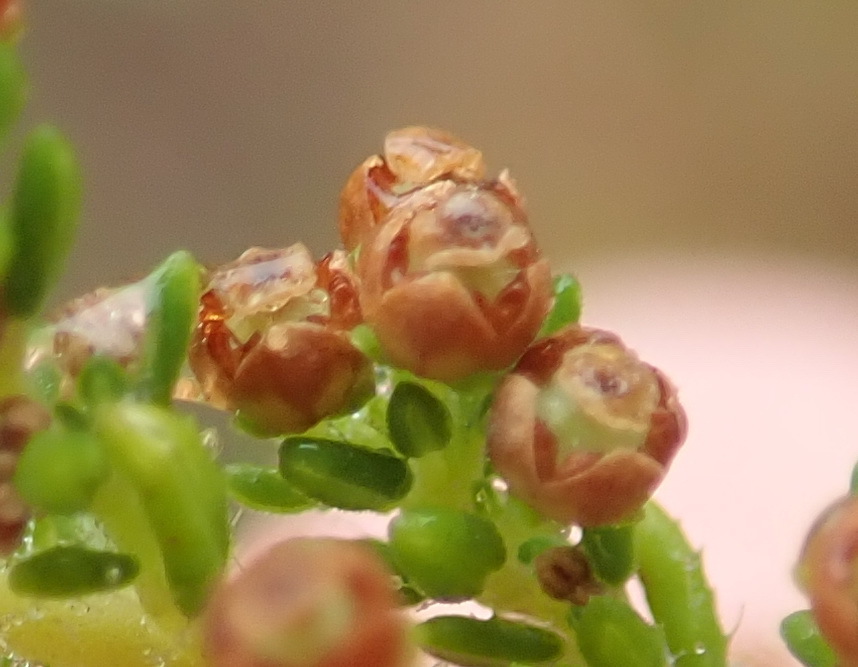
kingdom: Plantae
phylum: Tracheophyta
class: Magnoliopsida
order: Ericales
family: Ericaceae
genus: Erica
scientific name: Erica leucopelta
